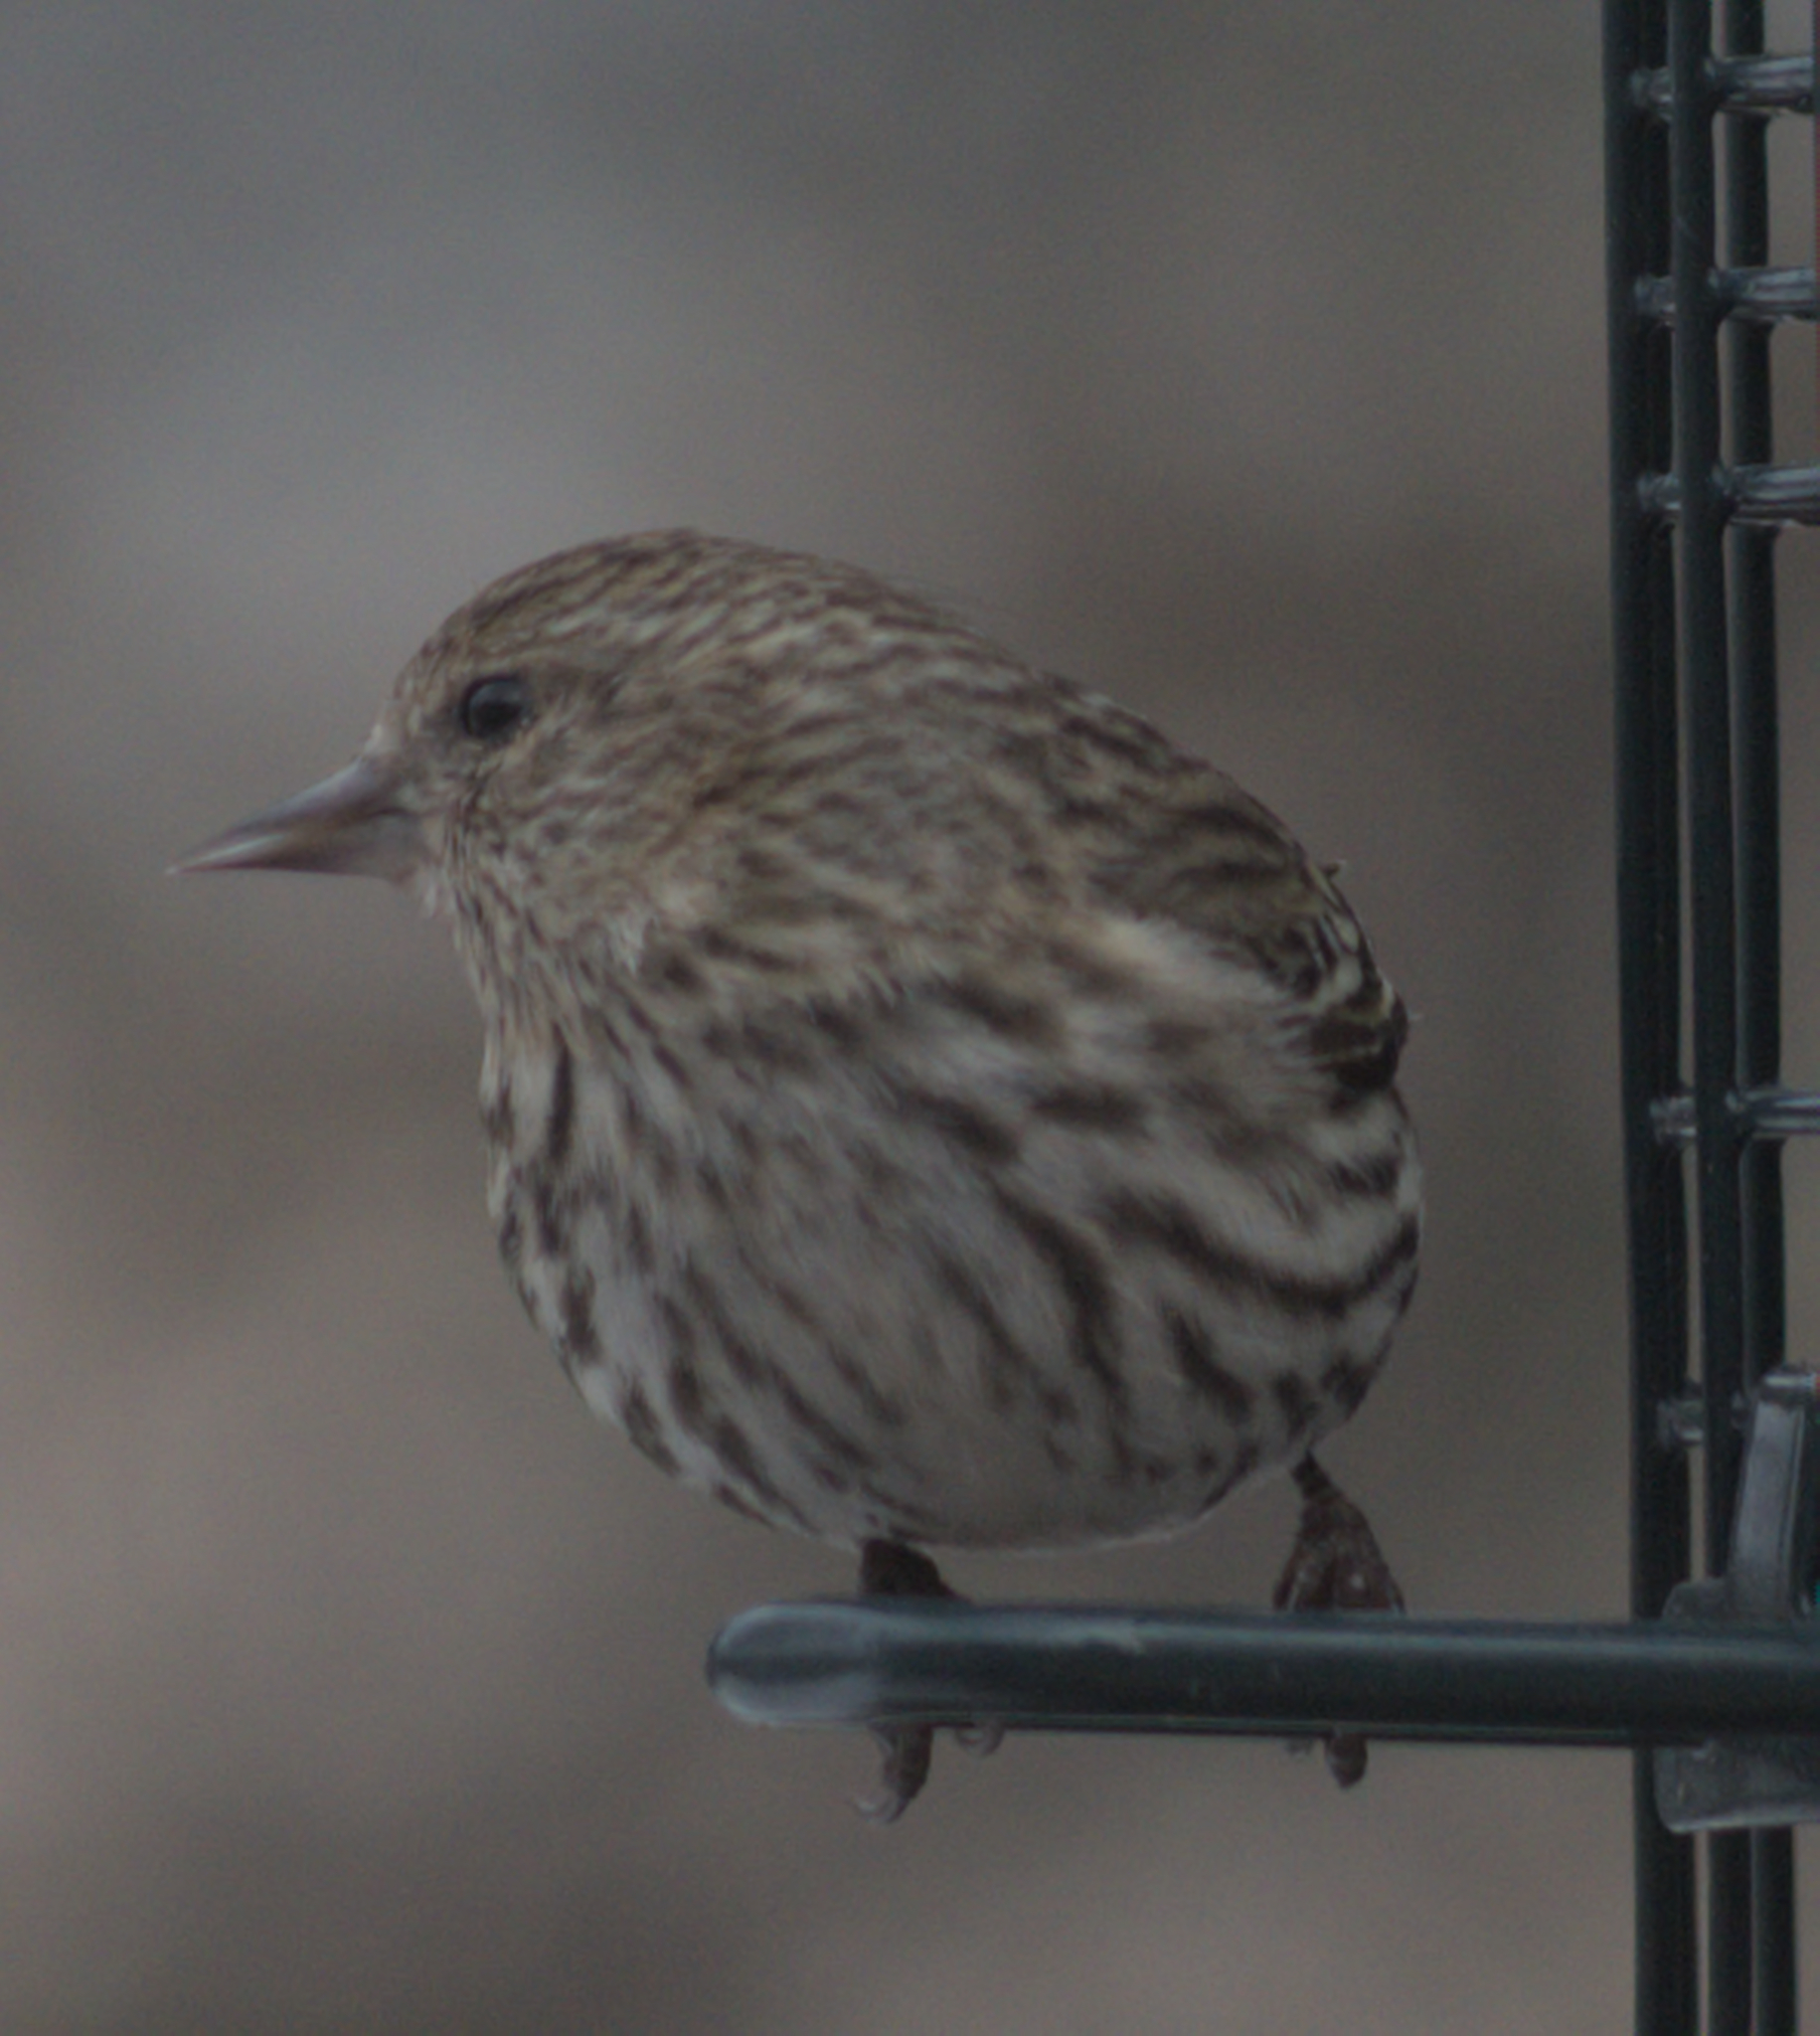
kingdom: Animalia
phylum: Chordata
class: Aves
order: Passeriformes
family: Fringillidae
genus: Spinus
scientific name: Spinus pinus
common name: Pine siskin
